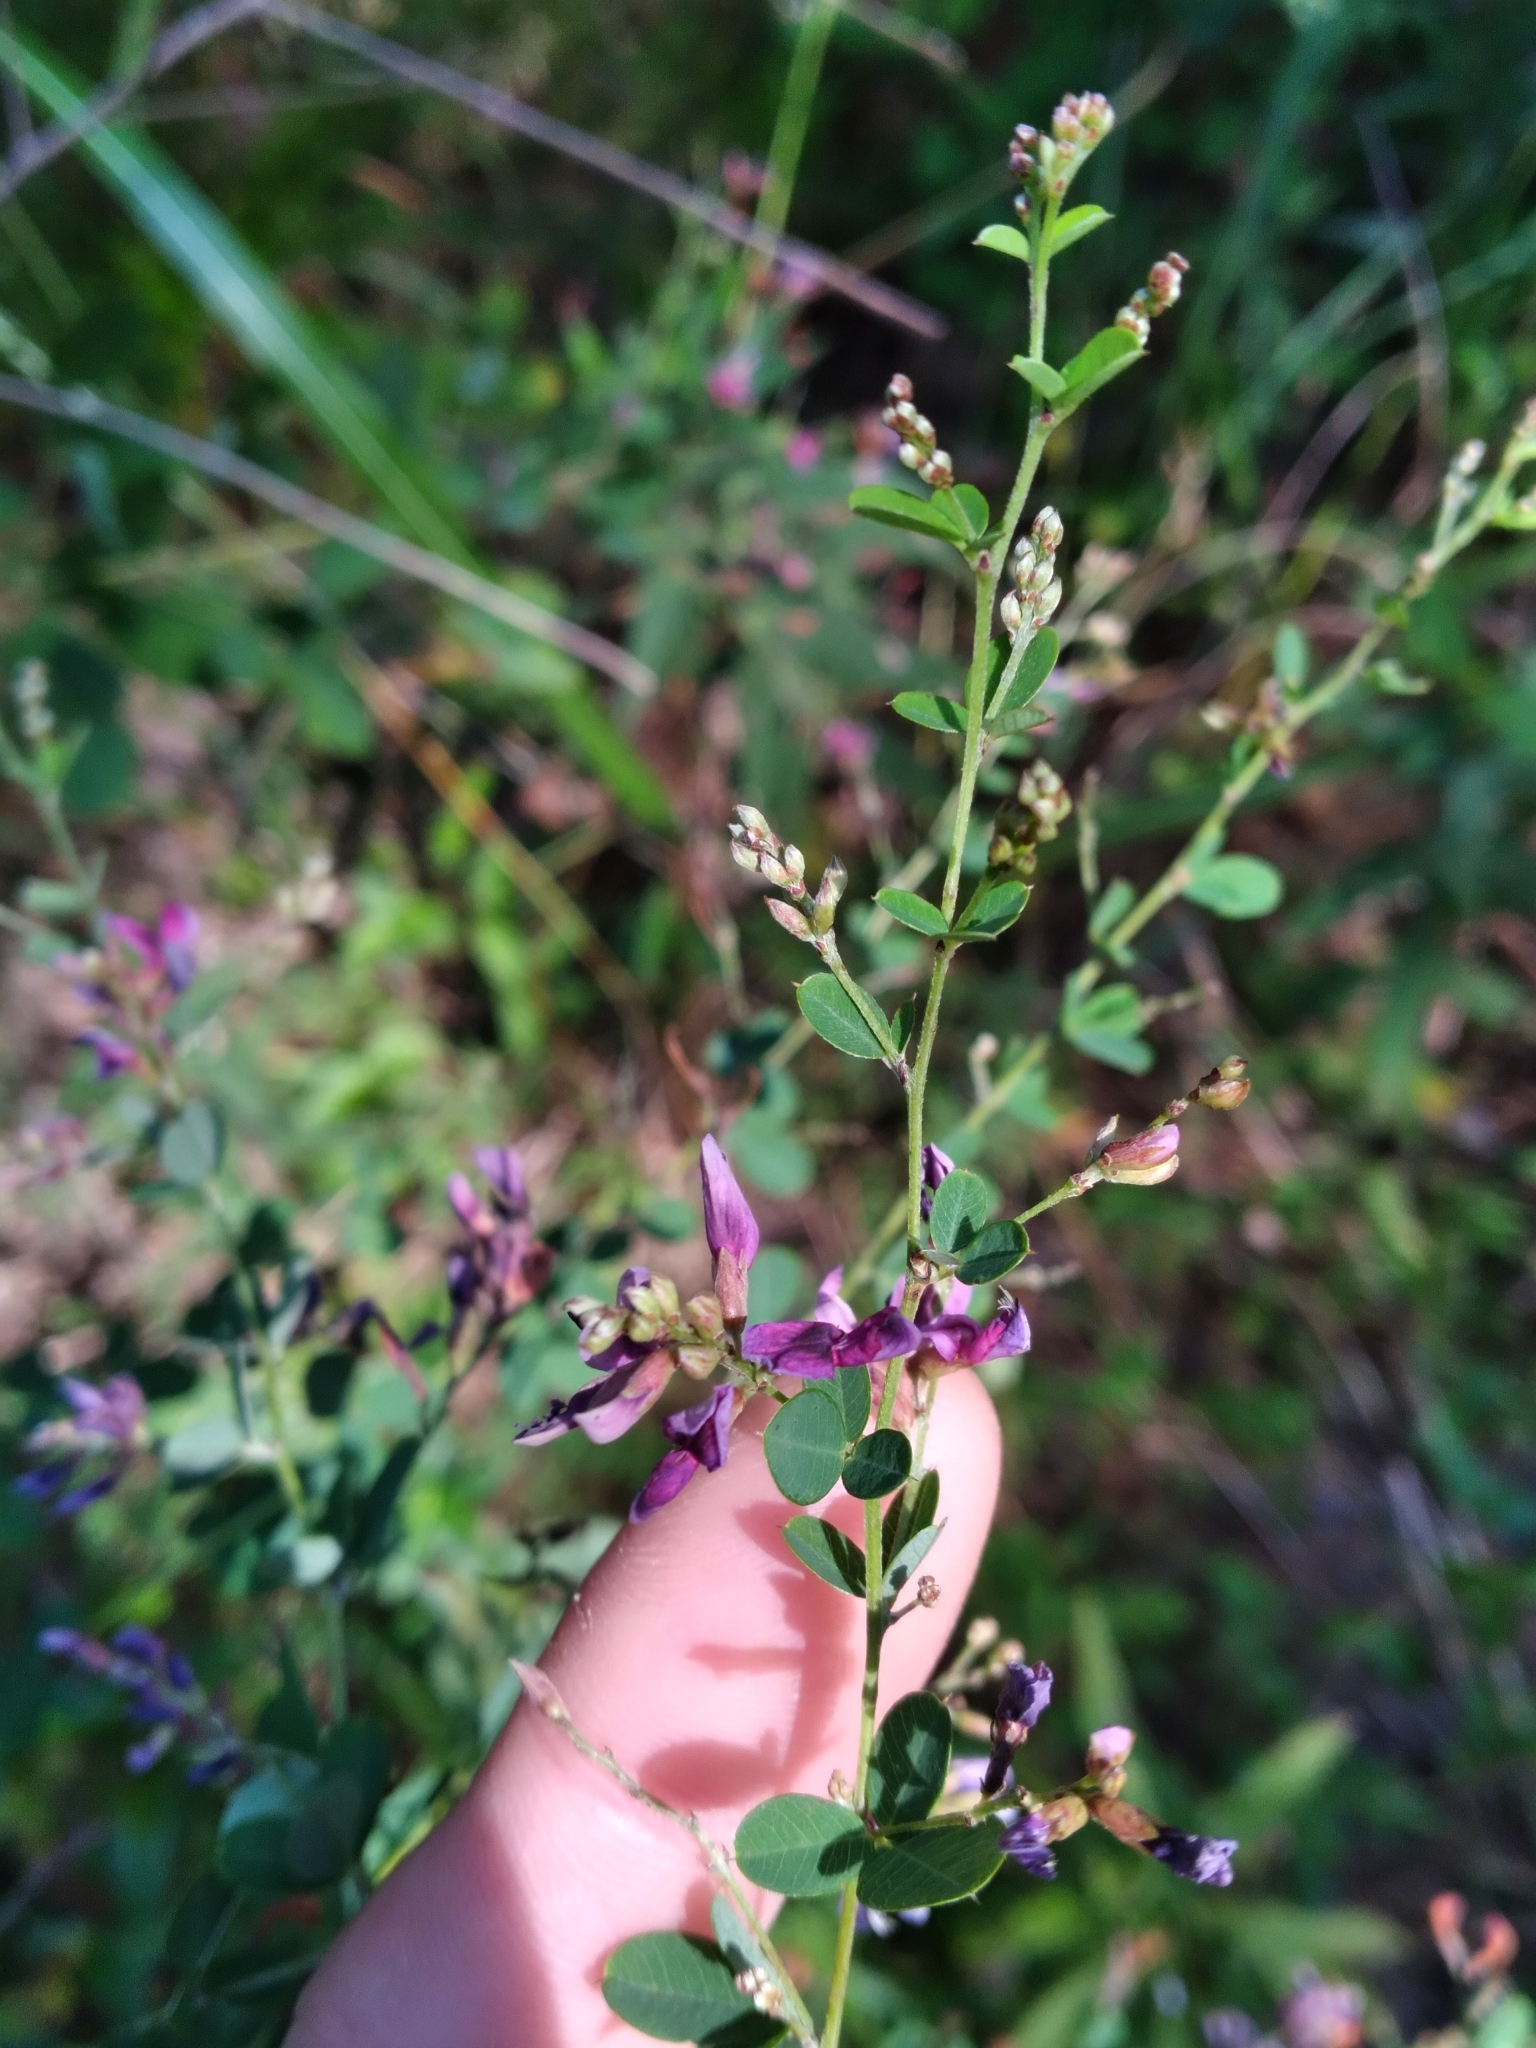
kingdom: Plantae
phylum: Tracheophyta
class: Magnoliopsida
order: Fabales
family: Fabaceae
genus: Lespedeza
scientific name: Lespedeza bicolor
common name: Shrub lespedeza
